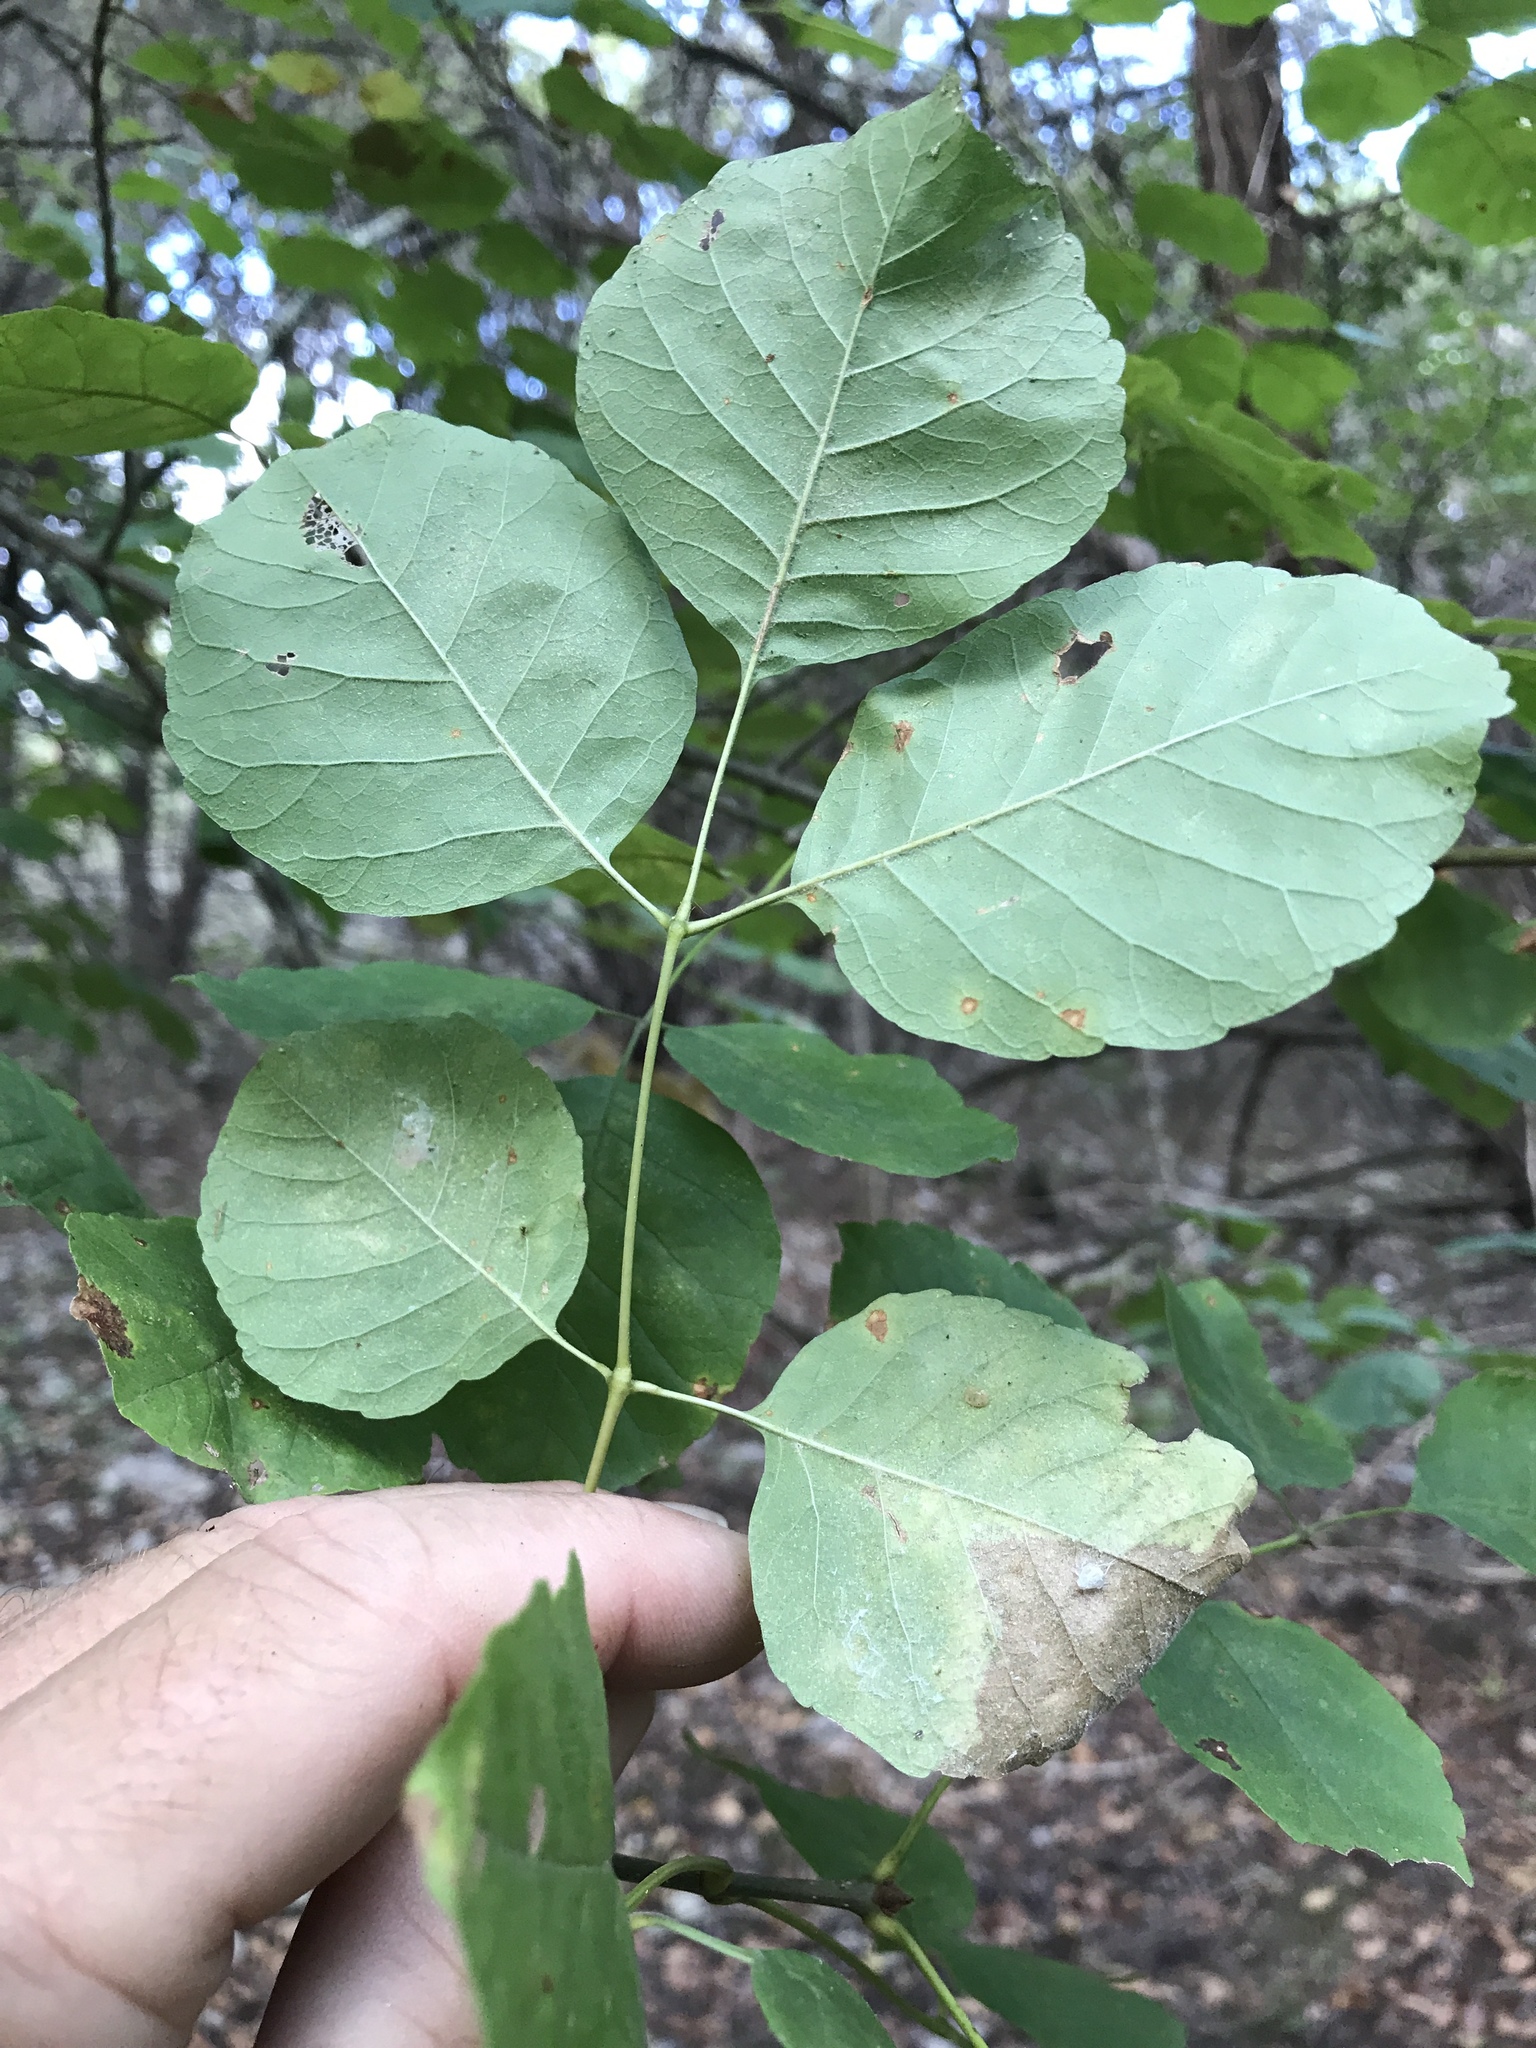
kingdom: Plantae
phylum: Tracheophyta
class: Magnoliopsida
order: Lamiales
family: Oleaceae
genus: Fraxinus
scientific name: Fraxinus albicans
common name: Texas ash
